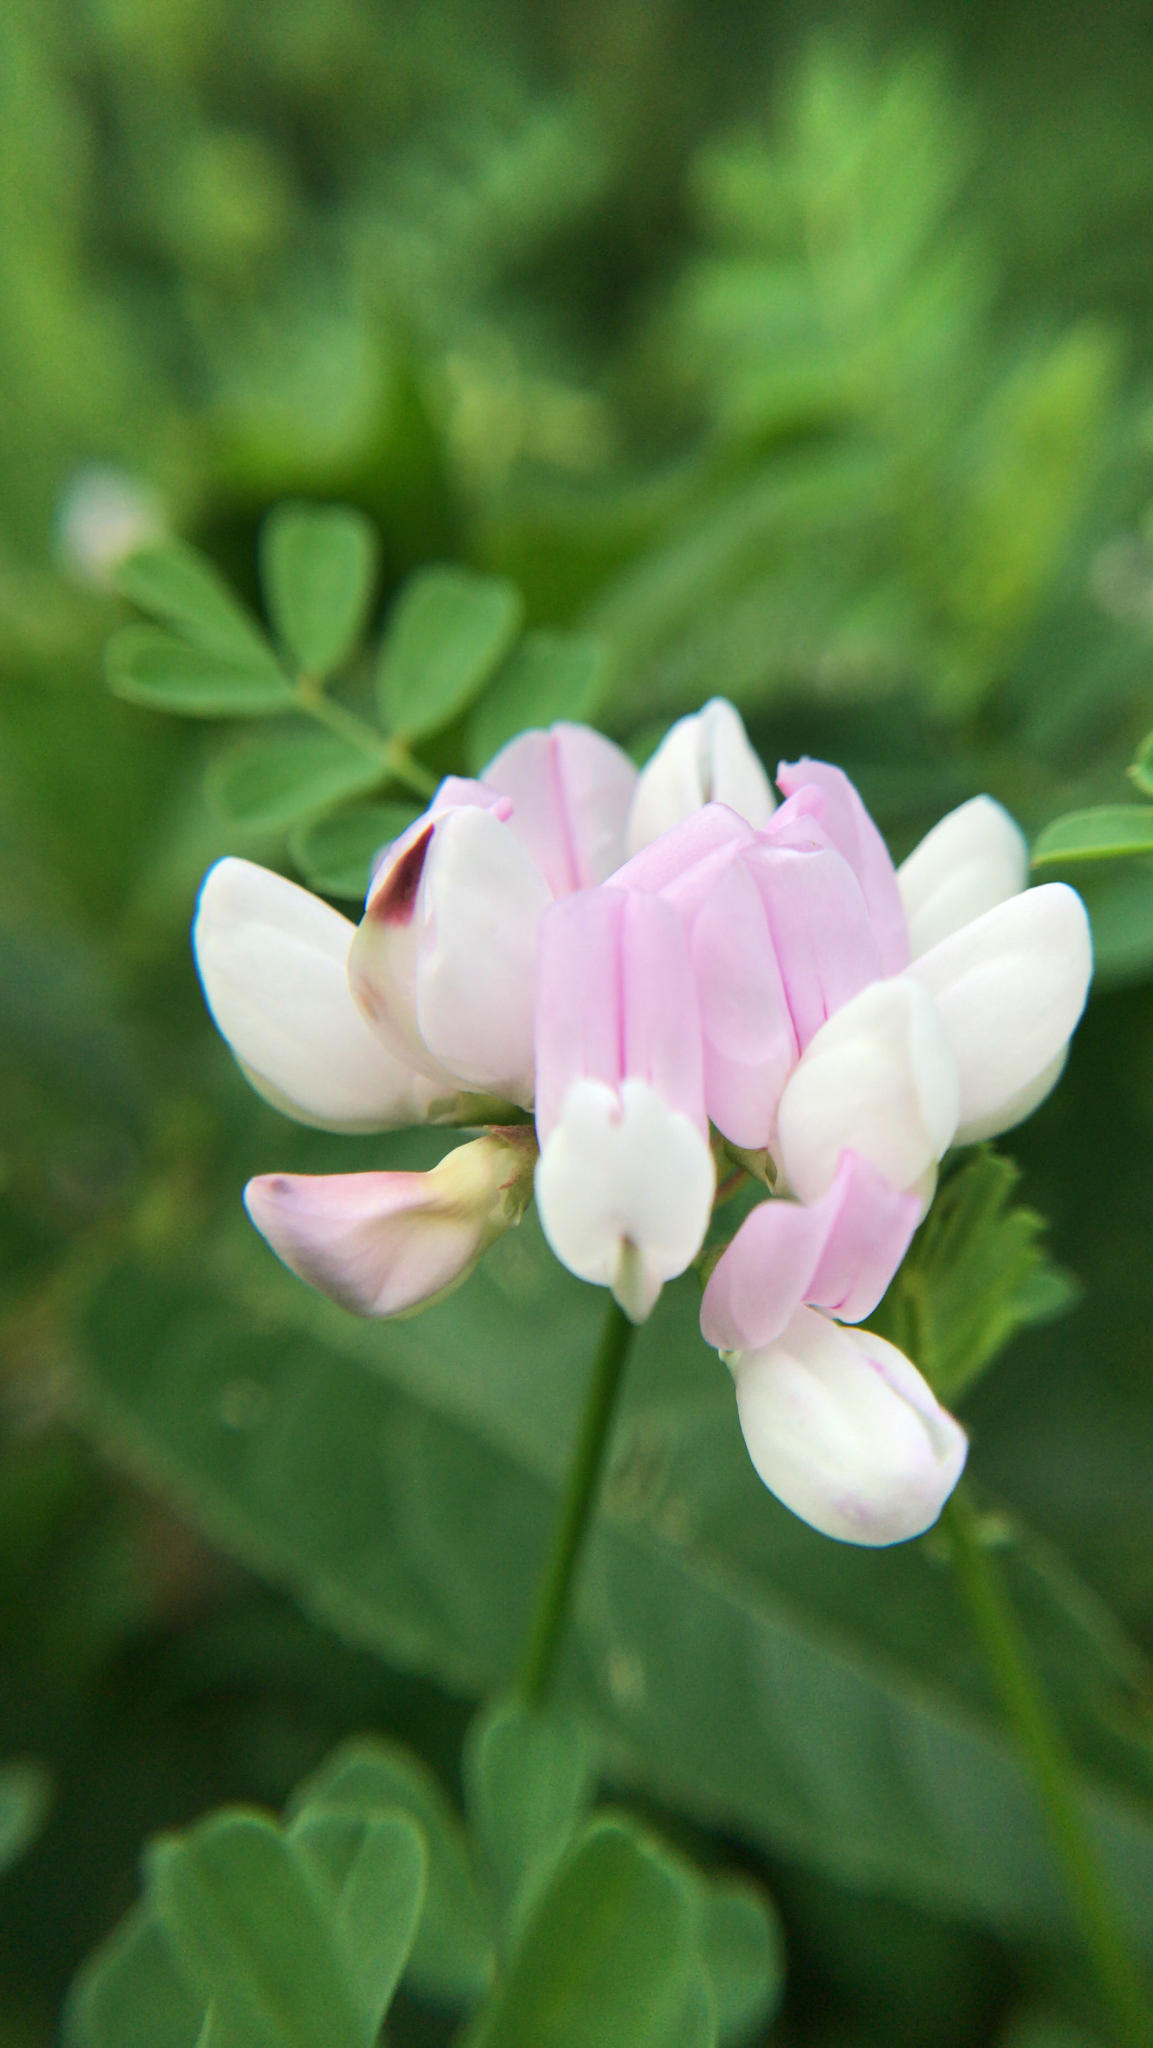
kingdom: Plantae
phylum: Tracheophyta
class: Magnoliopsida
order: Fabales
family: Fabaceae
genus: Coronilla
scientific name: Coronilla varia
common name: Crownvetch
